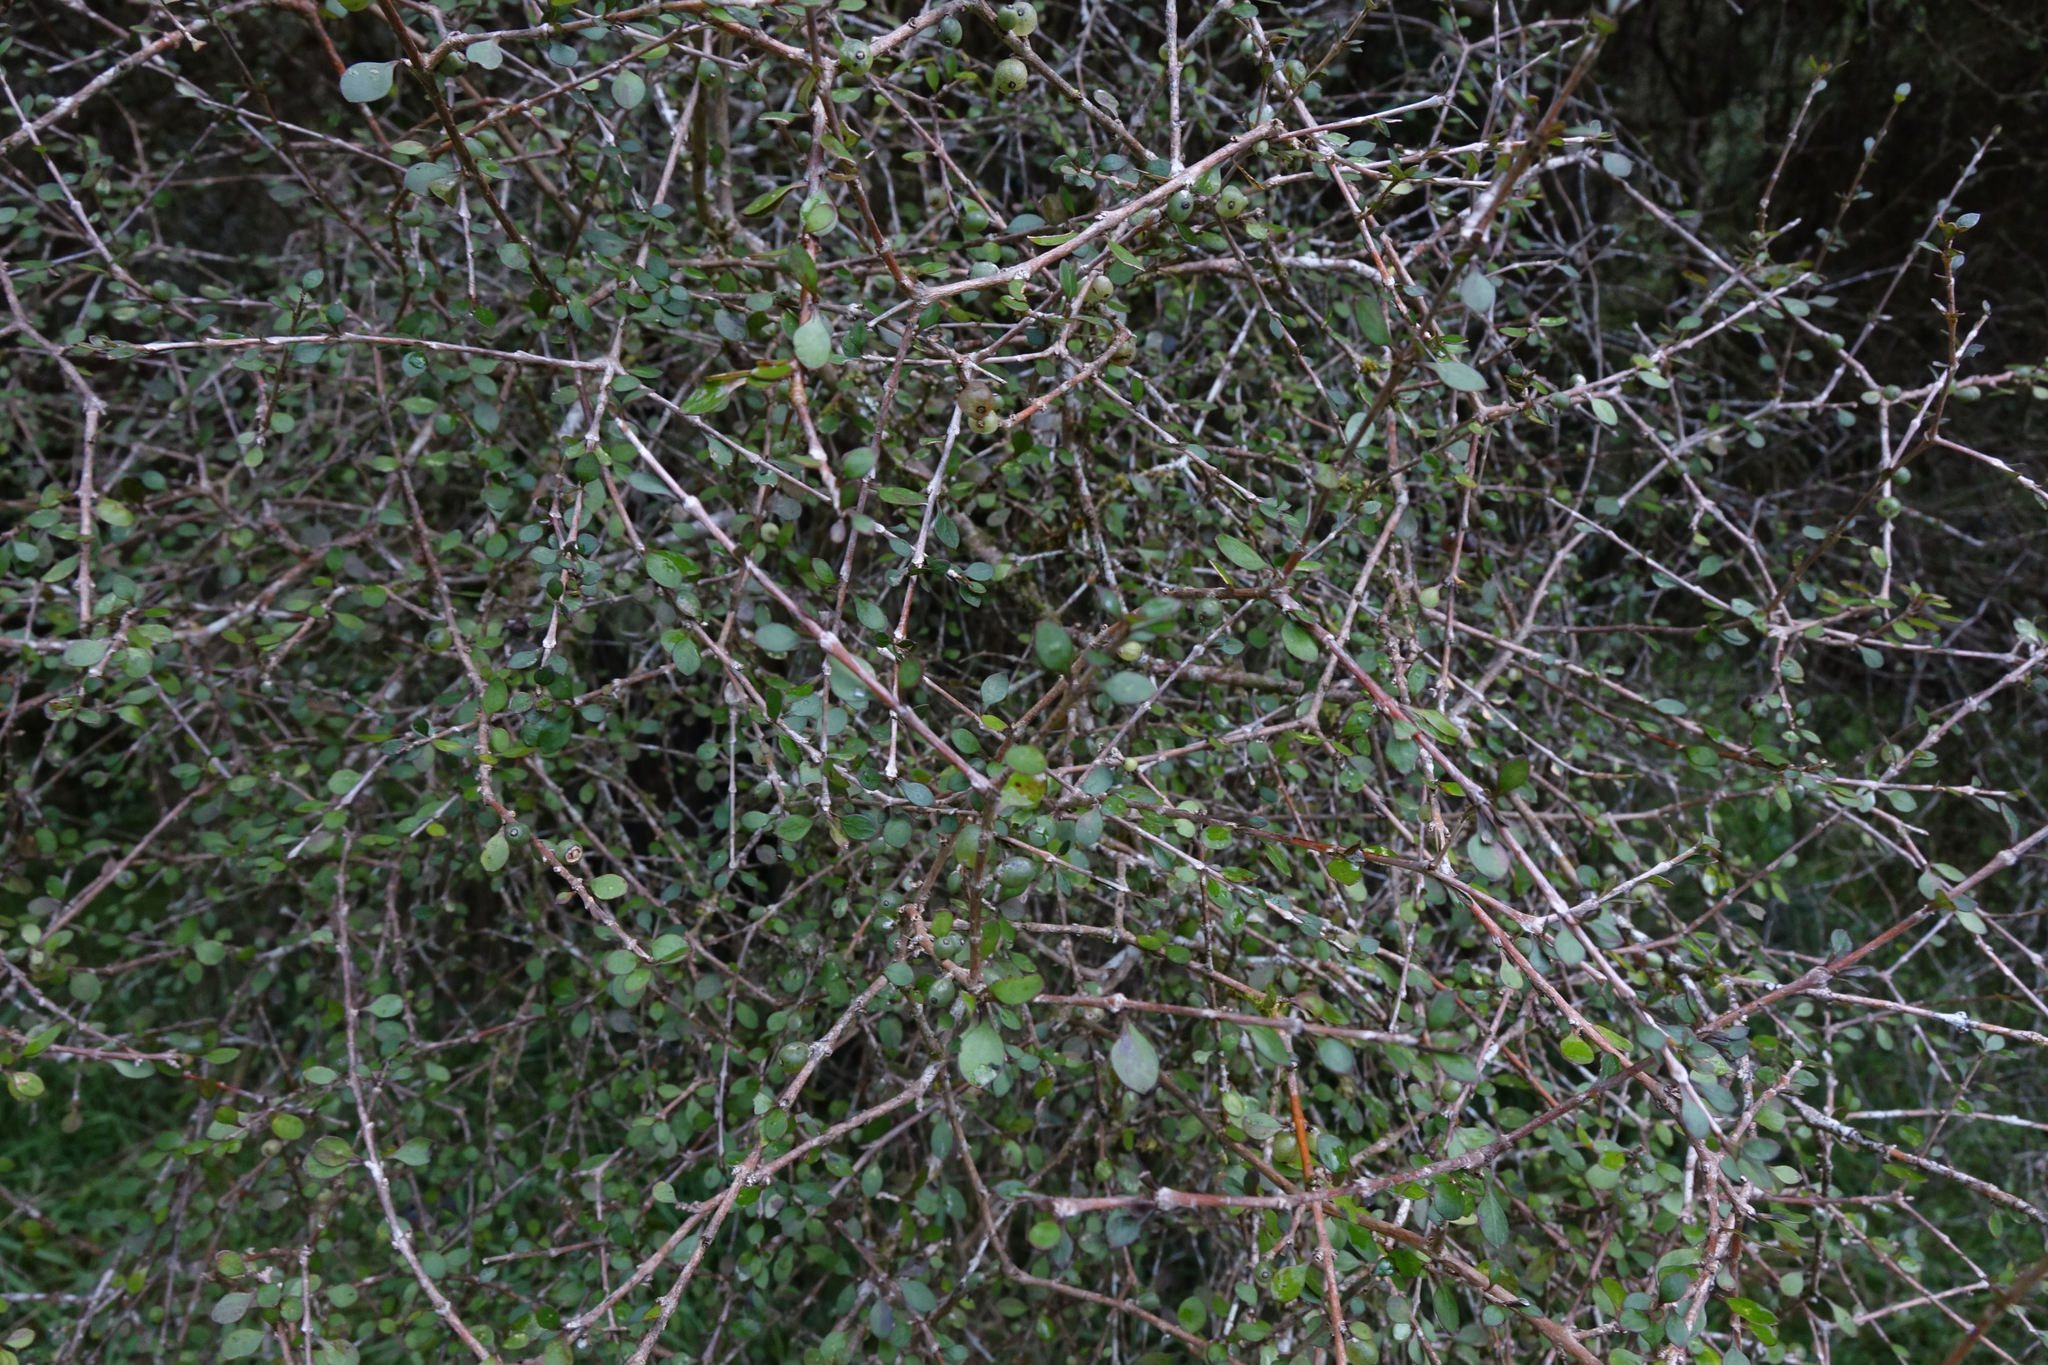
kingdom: Plantae
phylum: Tracheophyta
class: Magnoliopsida
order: Gentianales
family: Rubiaceae
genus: Coprosma
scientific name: Coprosma virescens
